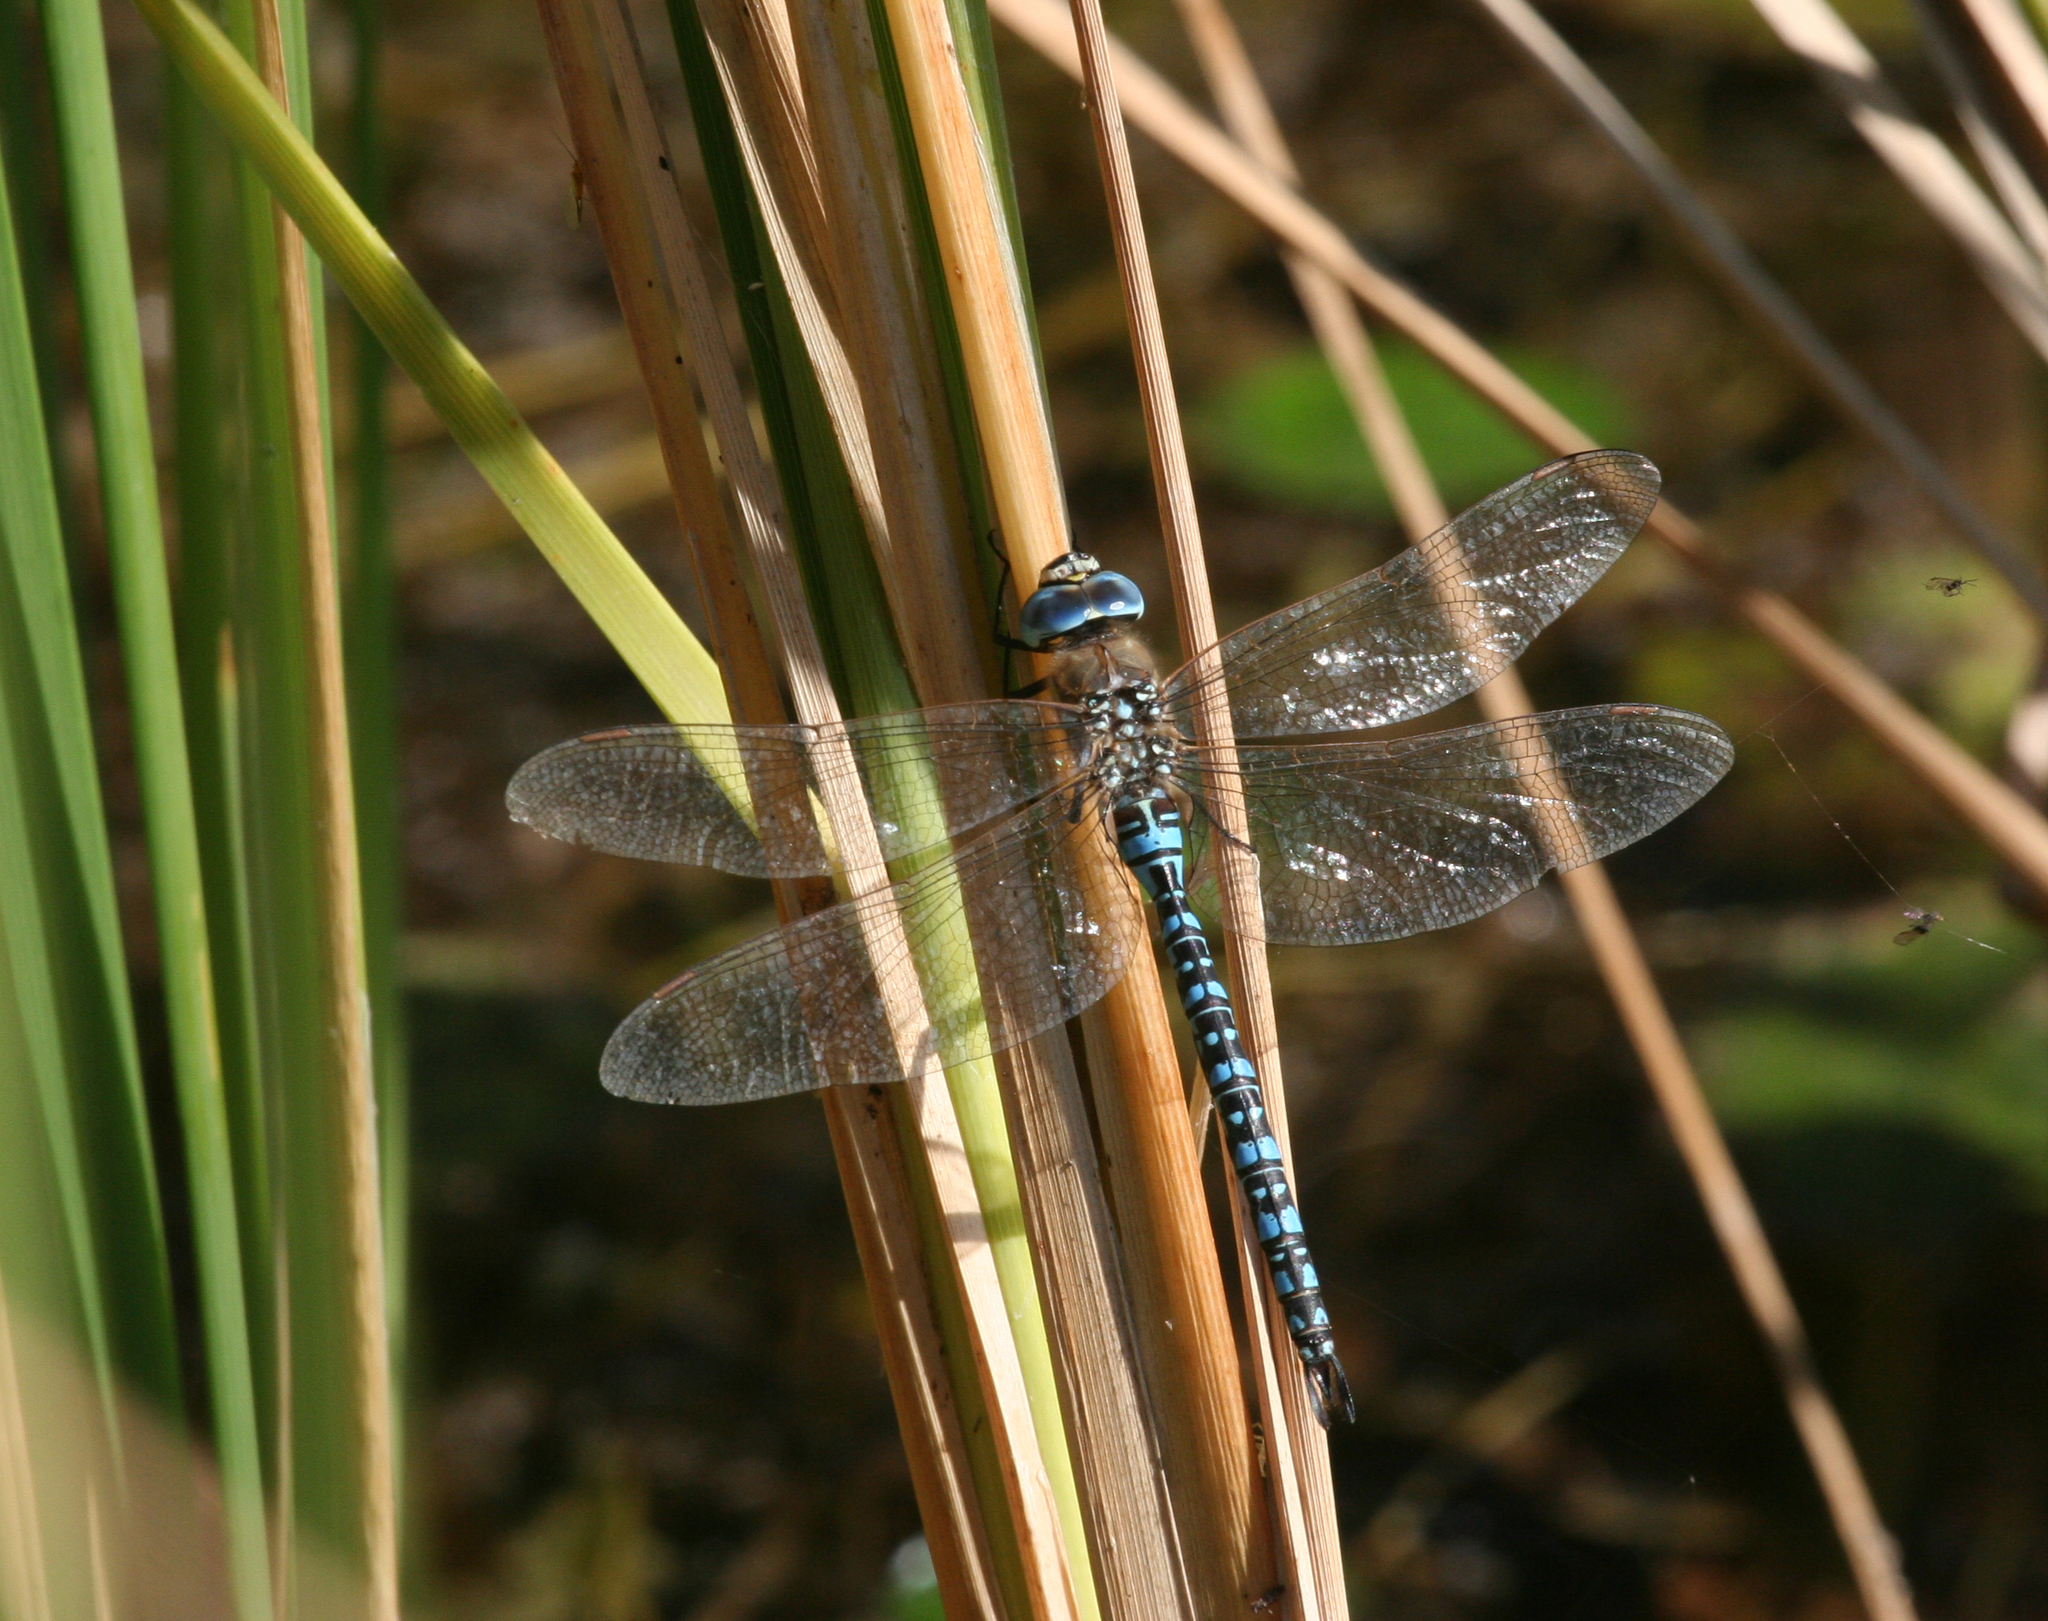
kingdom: Animalia
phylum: Arthropoda
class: Insecta
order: Odonata
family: Aeshnidae
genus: Aeshna
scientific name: Aeshna soneharai
